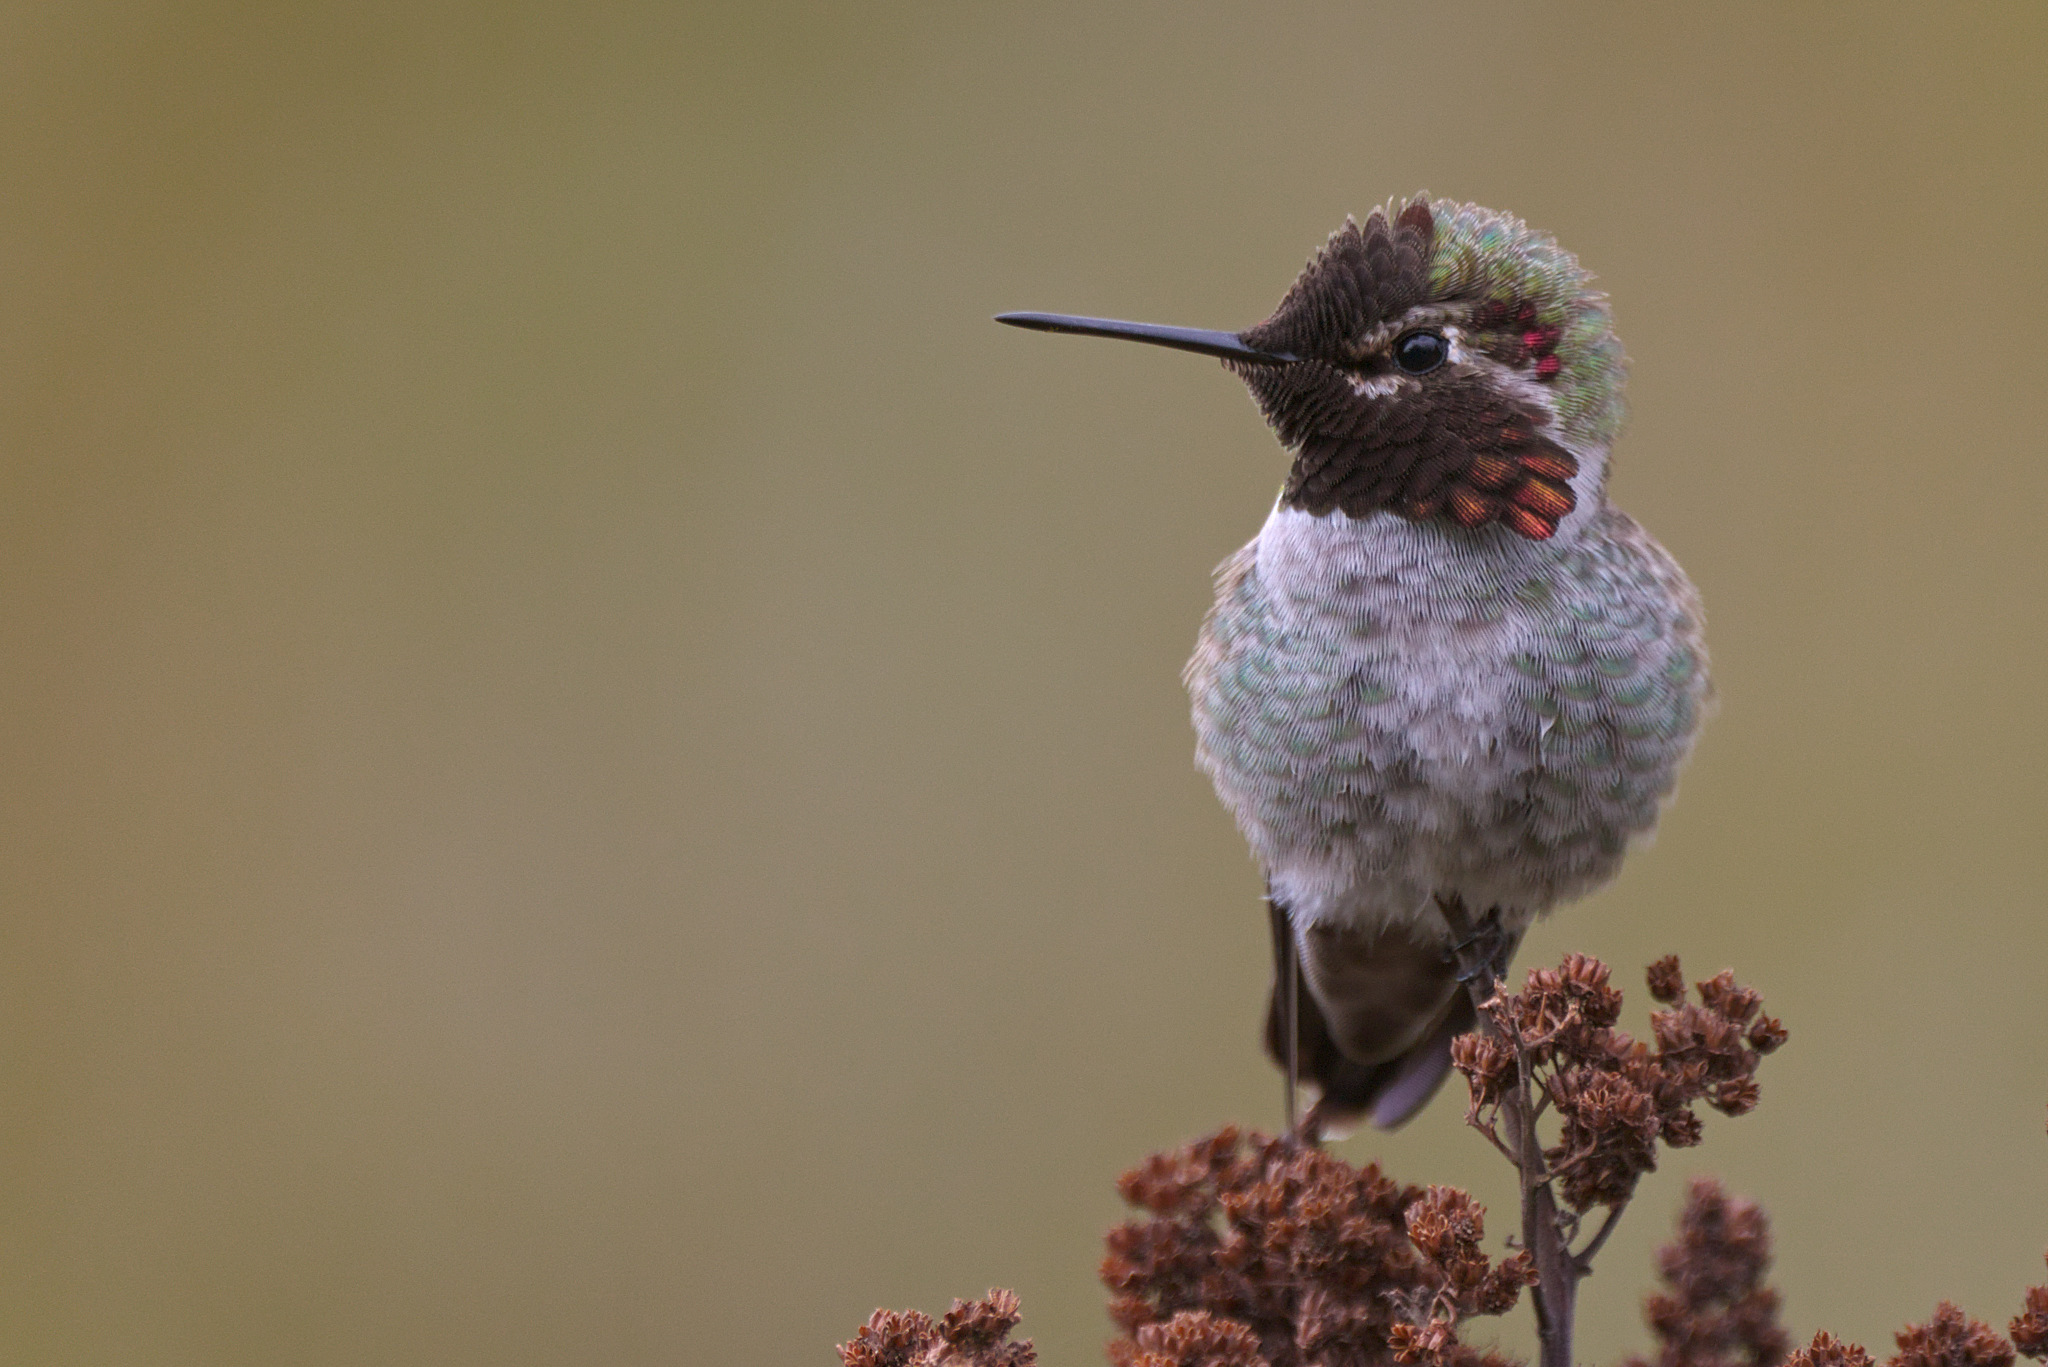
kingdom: Animalia
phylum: Chordata
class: Aves
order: Apodiformes
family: Trochilidae
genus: Calypte
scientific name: Calypte anna
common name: Anna's hummingbird
